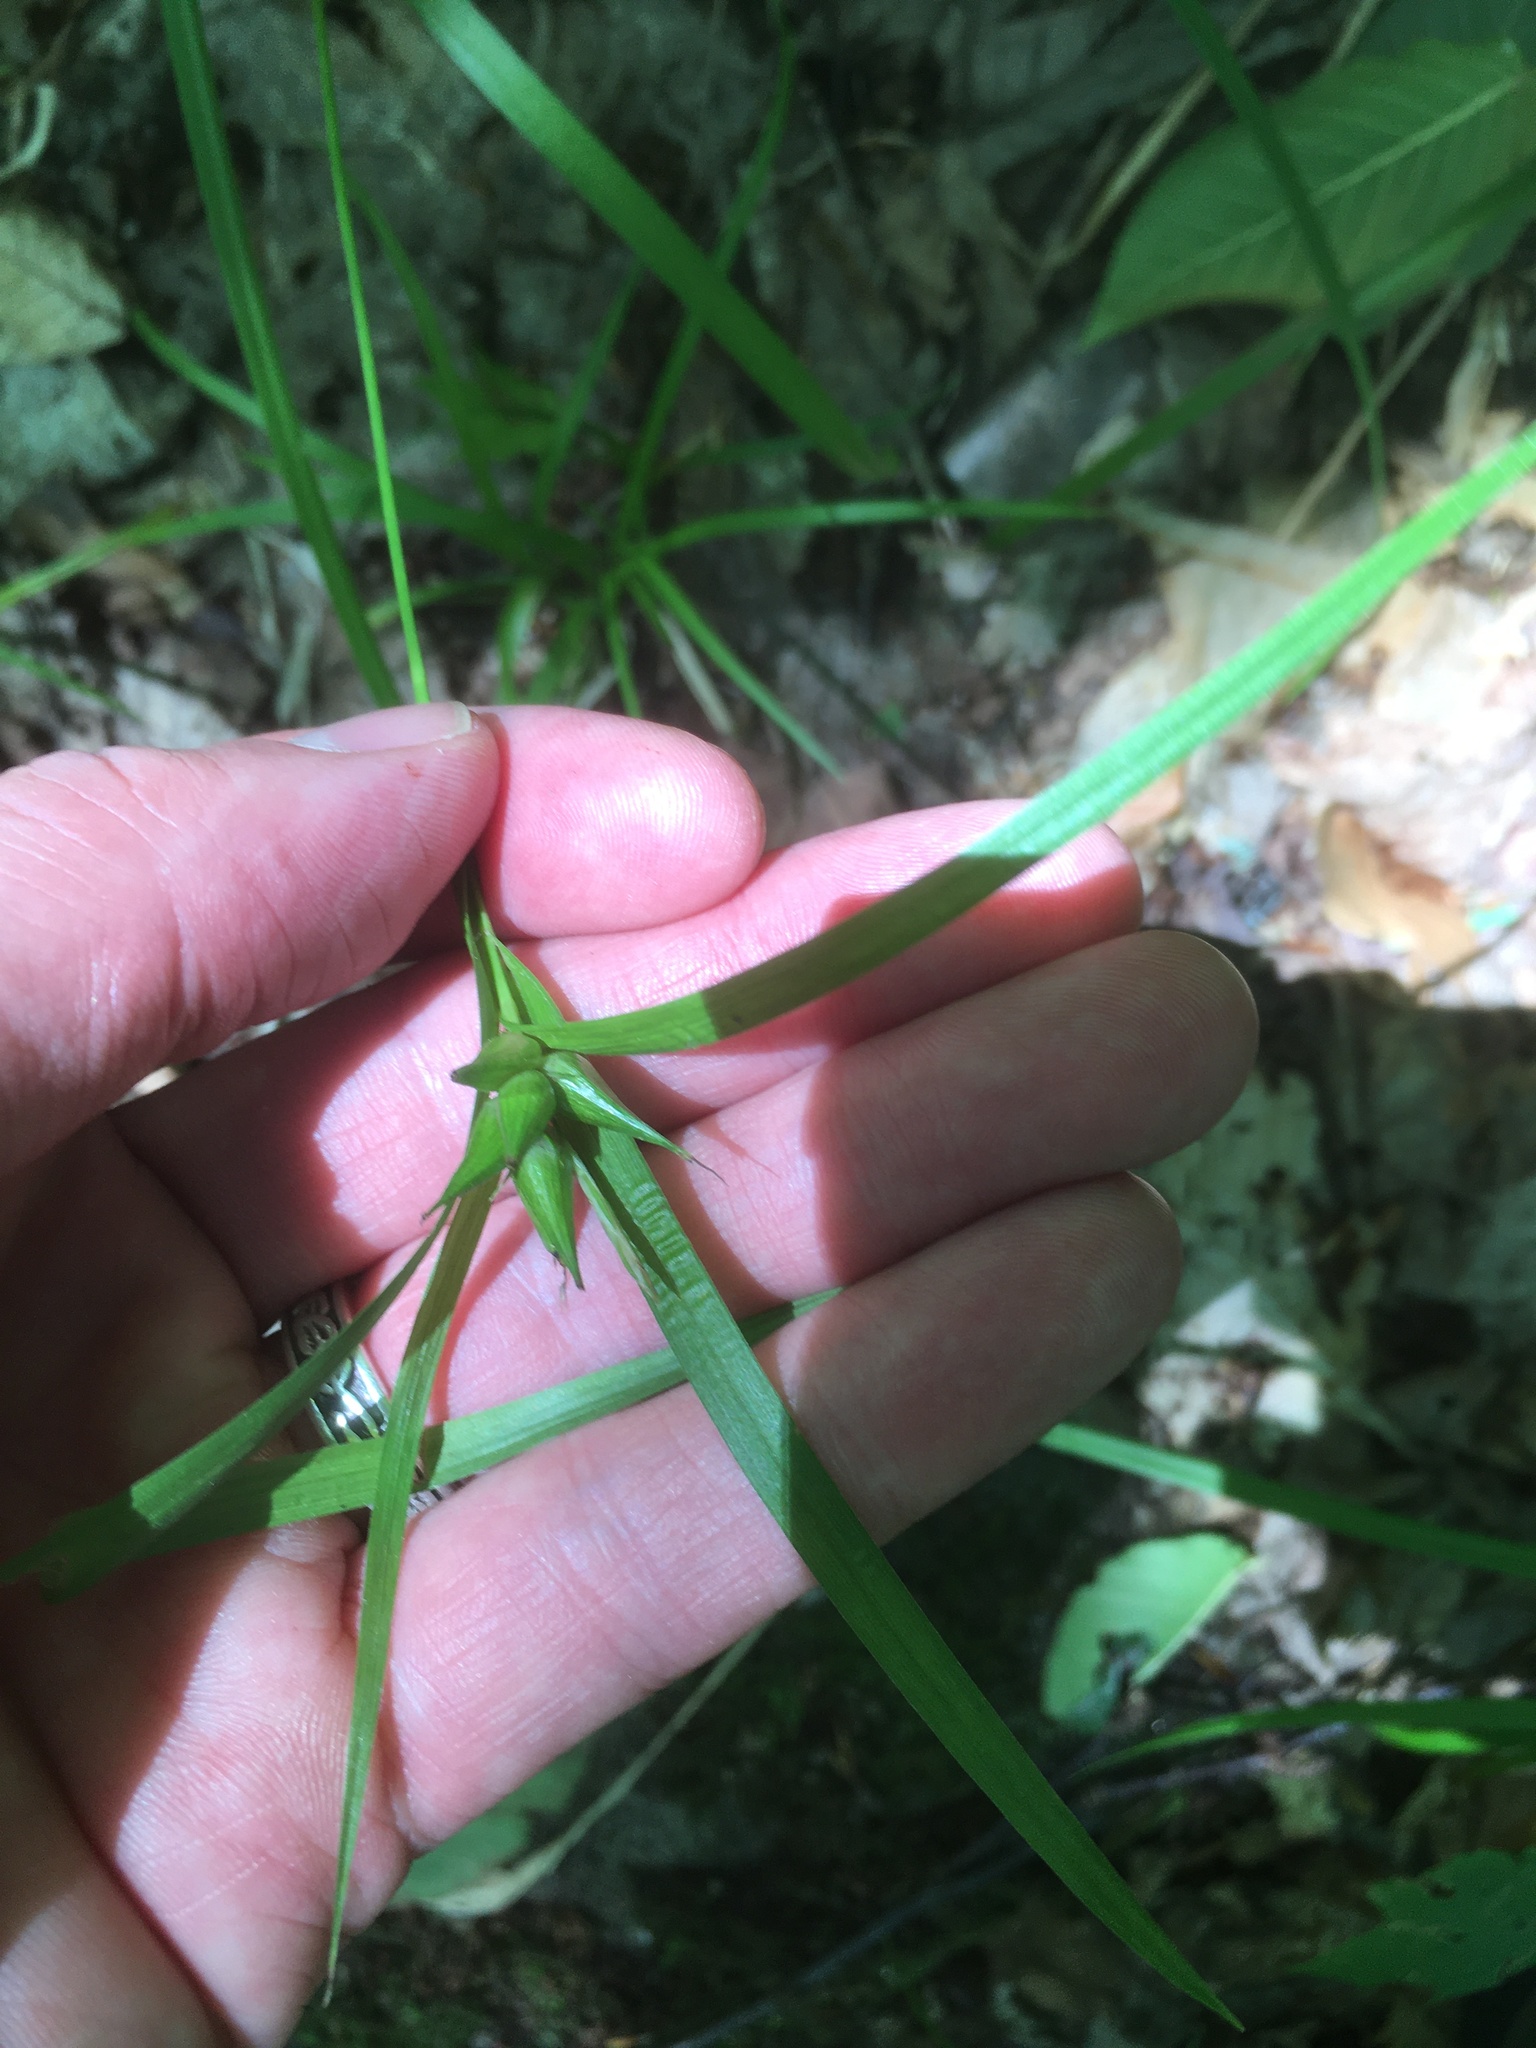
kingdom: Plantae
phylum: Tracheophyta
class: Liliopsida
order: Poales
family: Cyperaceae
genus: Carex
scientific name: Carex intumescens
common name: Greater bladder sedge
